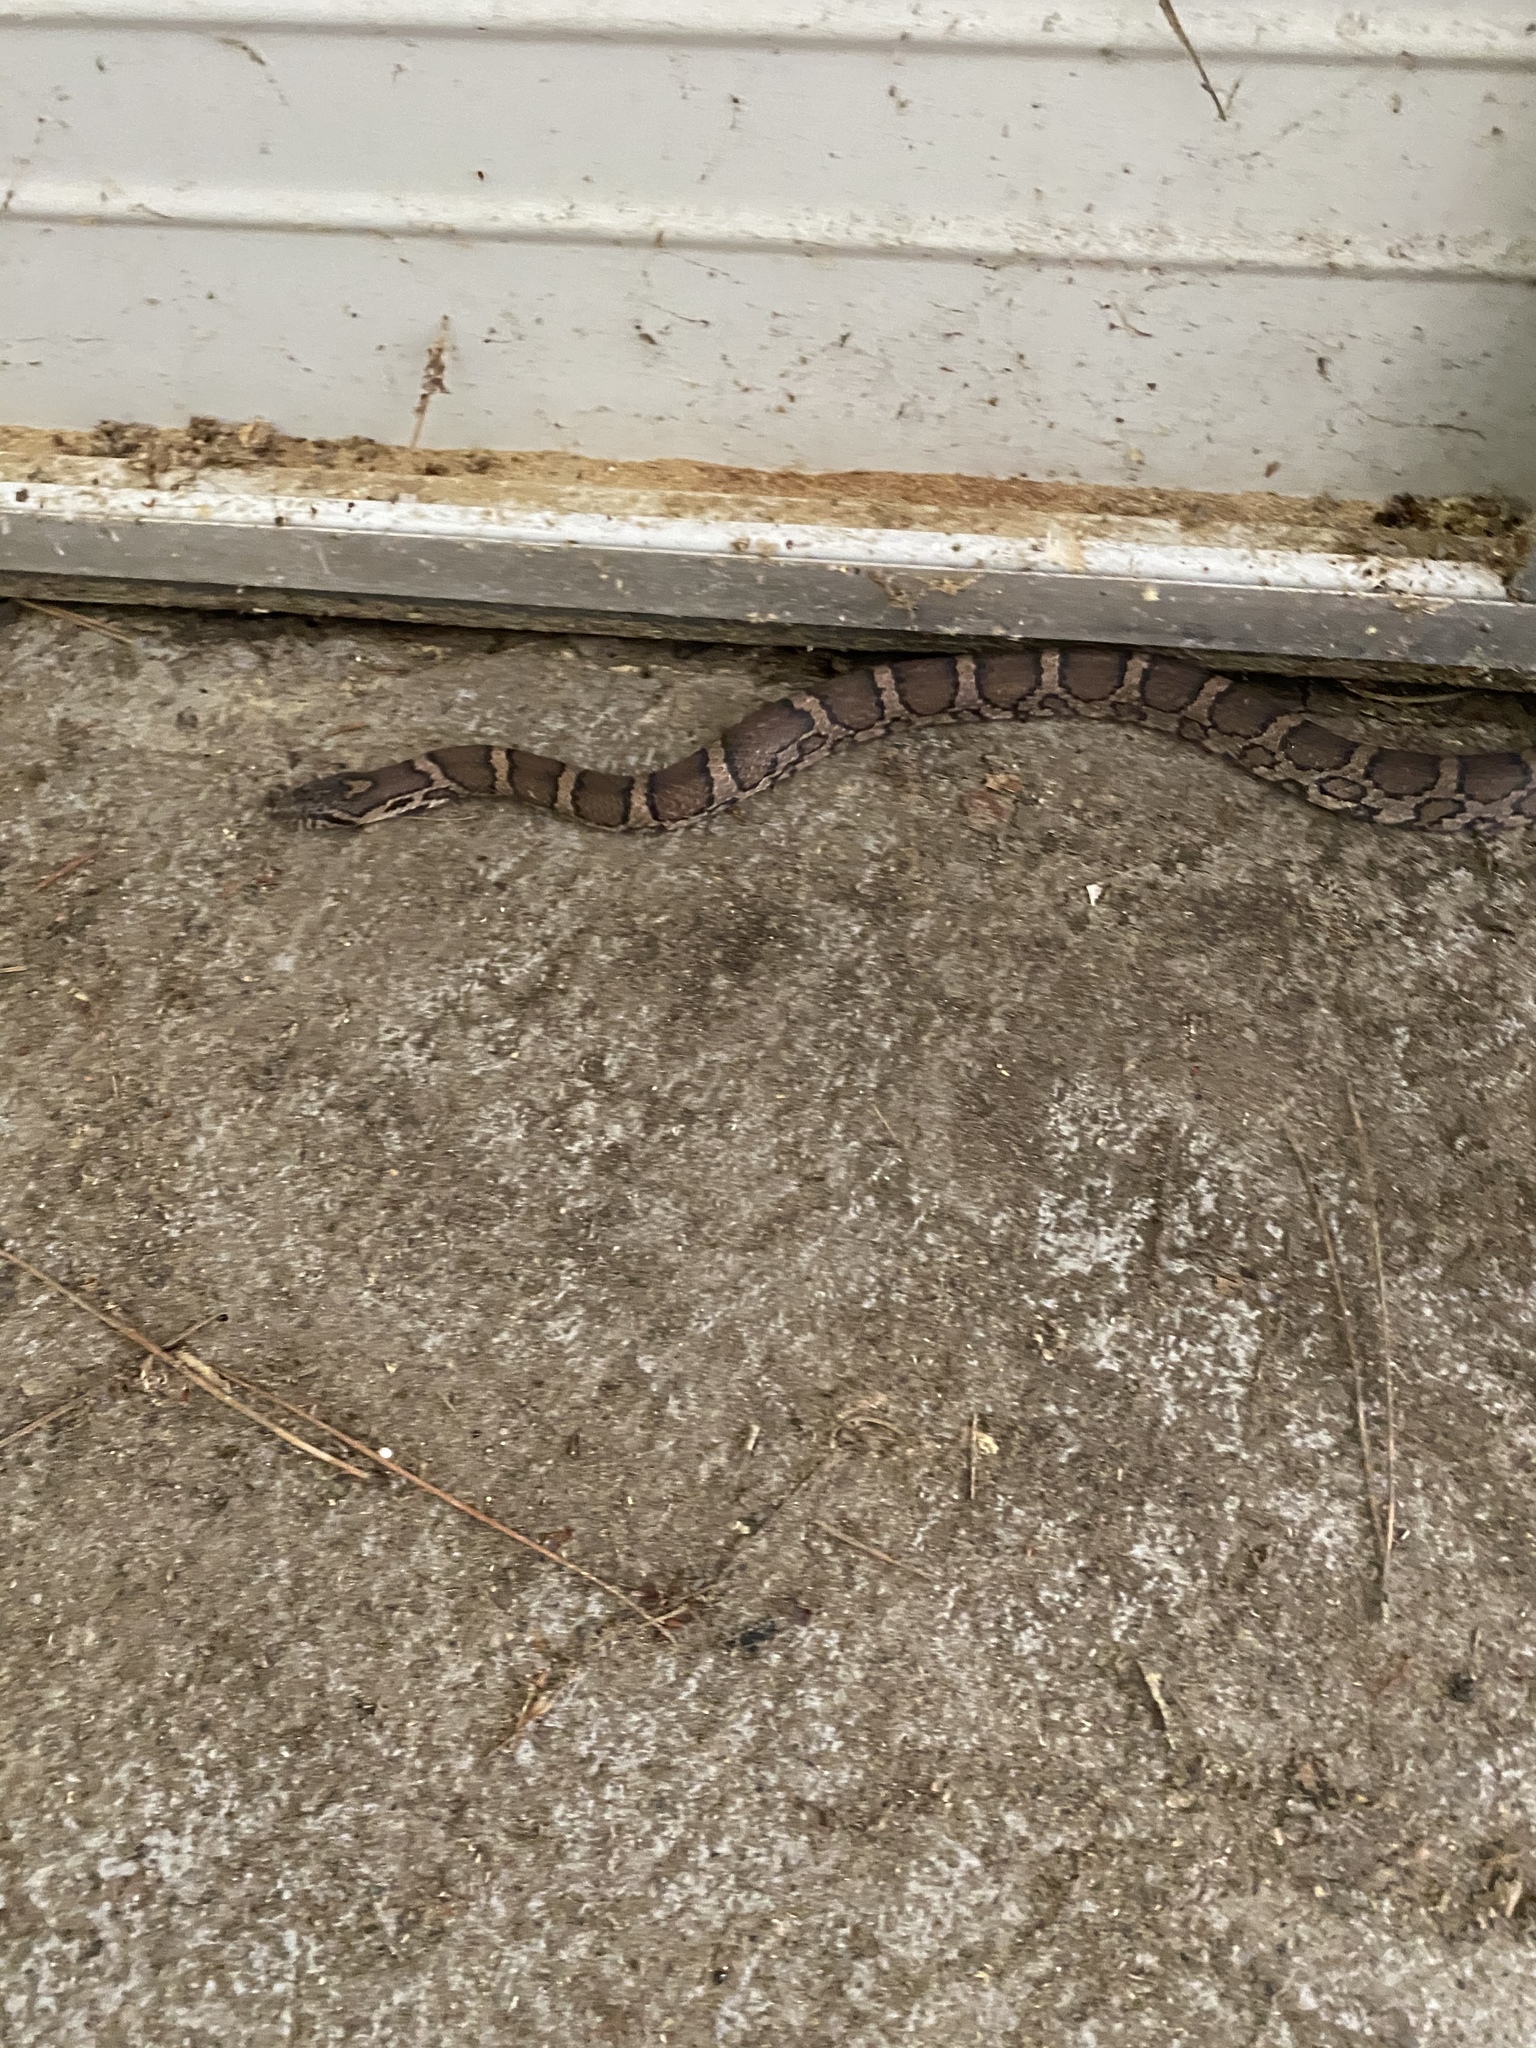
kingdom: Animalia
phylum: Chordata
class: Squamata
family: Colubridae
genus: Lampropeltis
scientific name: Lampropeltis triangulum
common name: Eastern milksnake
